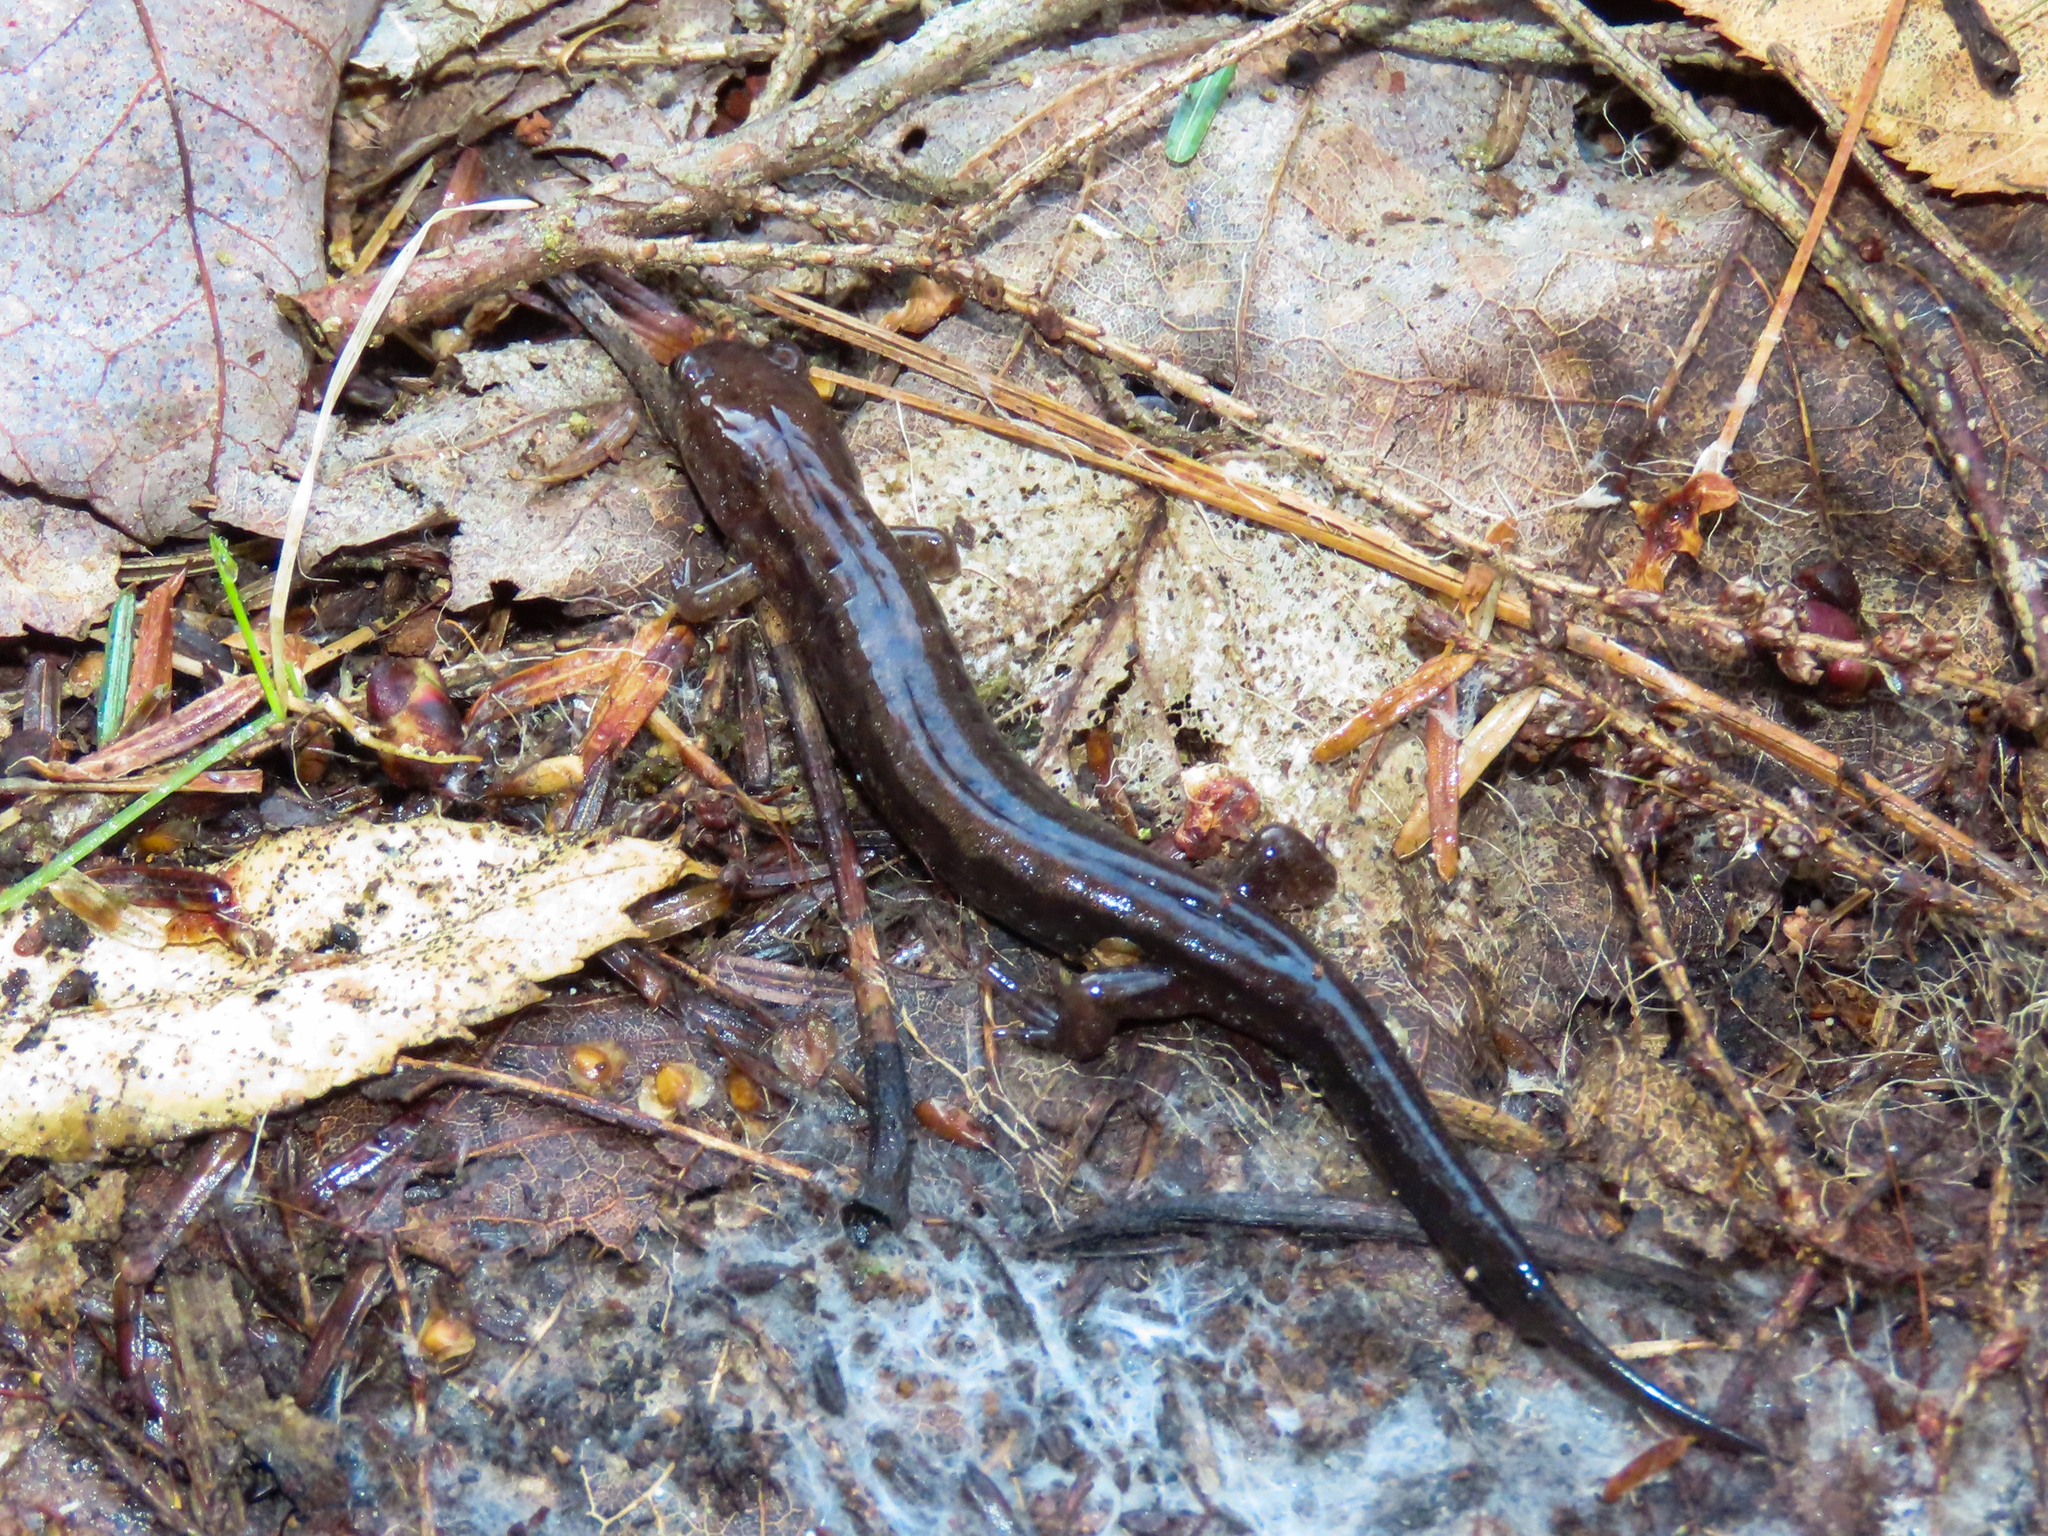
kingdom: Animalia
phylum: Chordata
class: Amphibia
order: Caudata
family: Plethodontidae
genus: Desmognathus
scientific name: Desmognathus ochrophaeus
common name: Allegheny mountain dusky salamander
